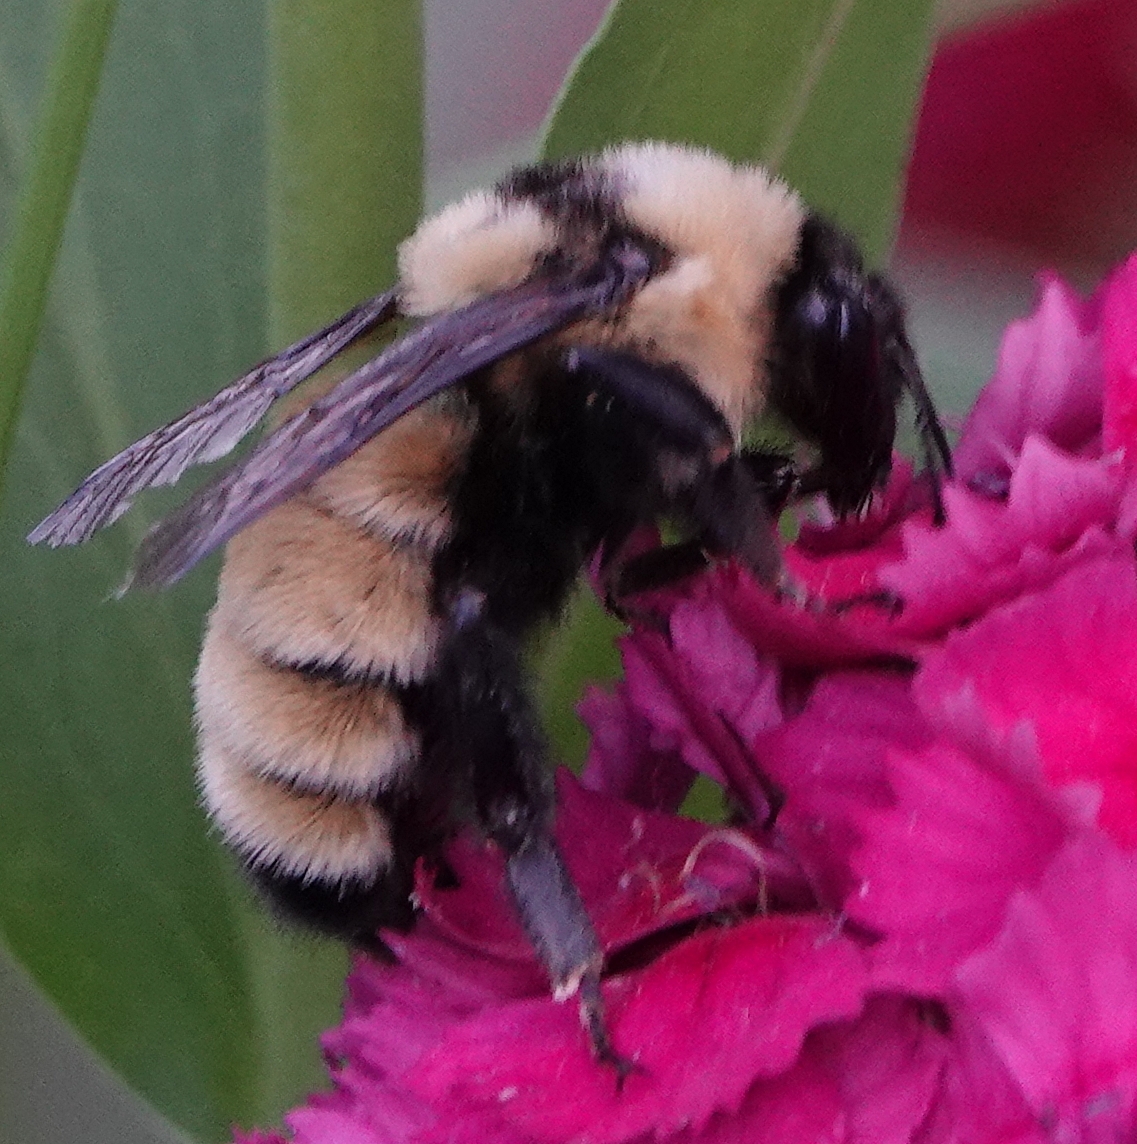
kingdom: Animalia
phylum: Arthropoda
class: Insecta
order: Hymenoptera
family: Apidae
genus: Bombus
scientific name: Bombus fervidus
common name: Yellow bumble bee
